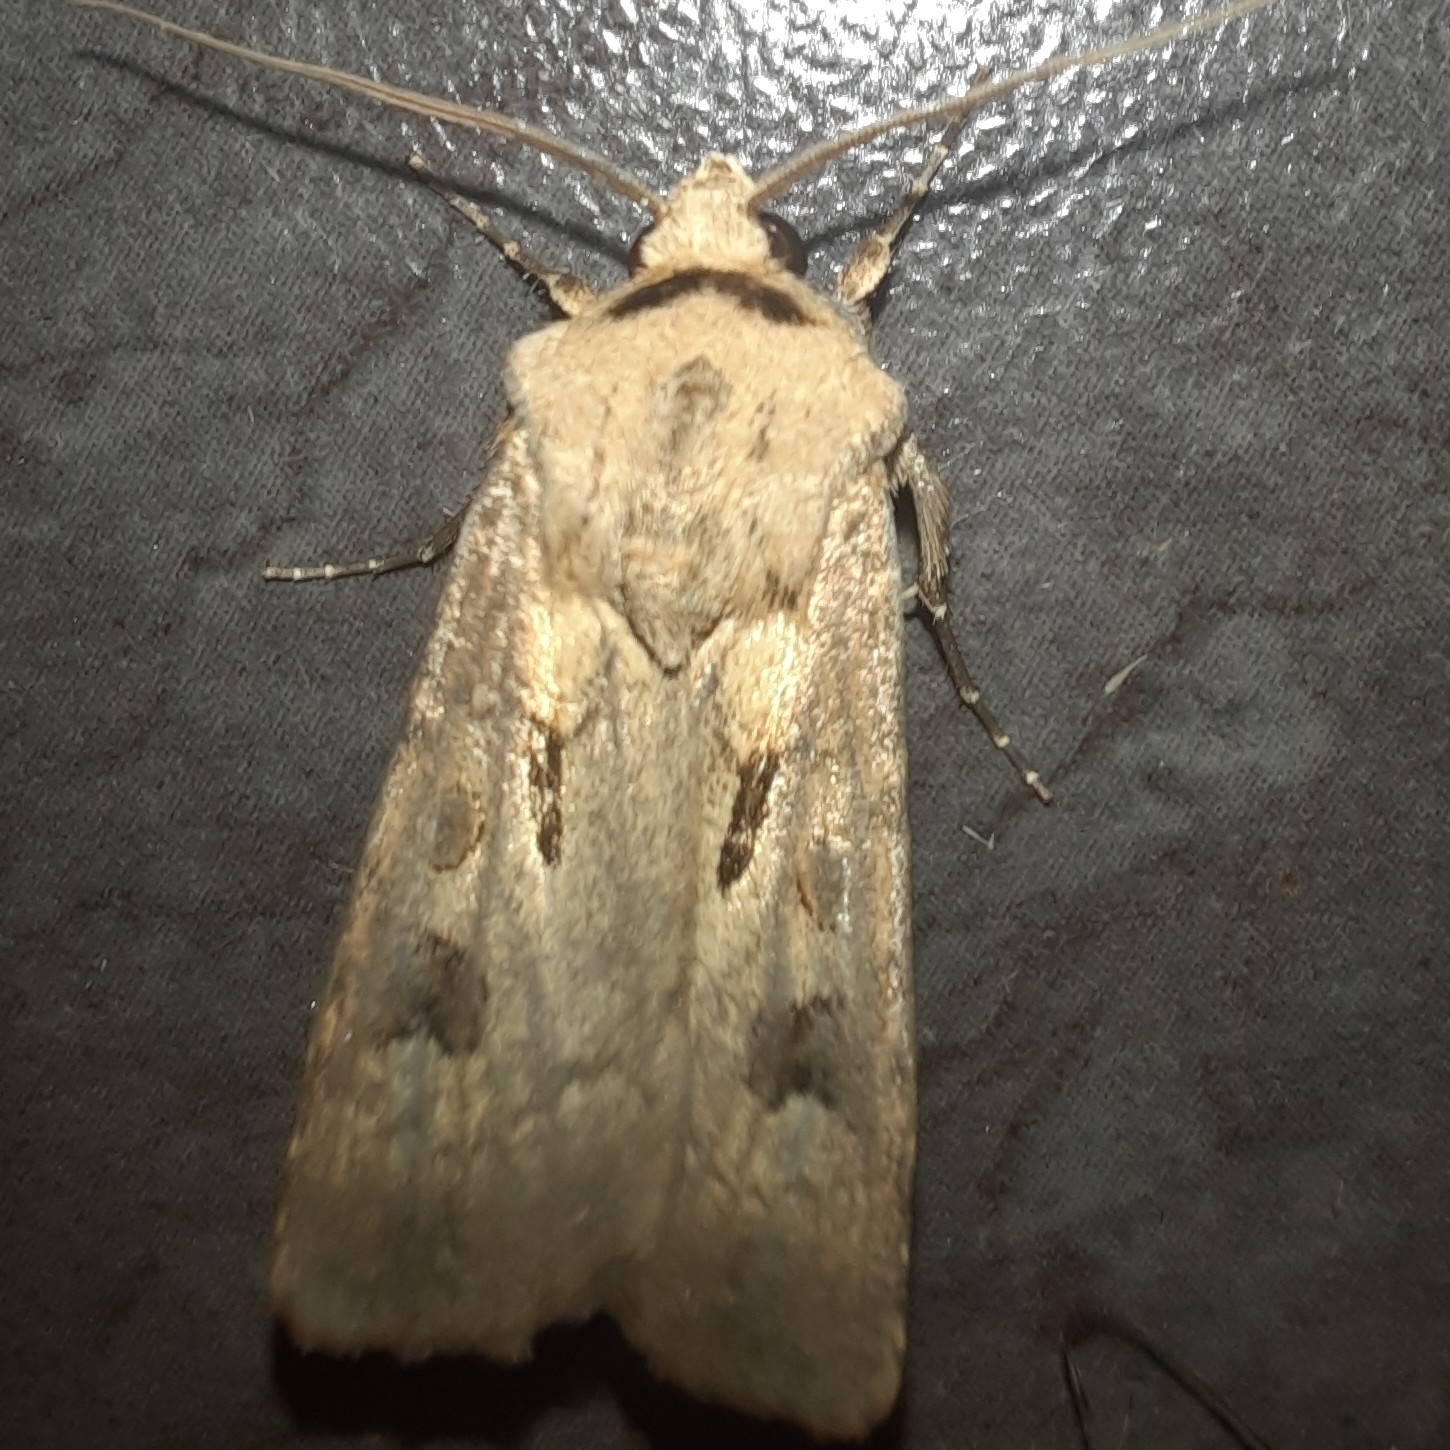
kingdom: Animalia
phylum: Arthropoda
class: Insecta
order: Lepidoptera
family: Noctuidae
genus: Agrotis
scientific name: Agrotis exclamationis
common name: Heart and dart
